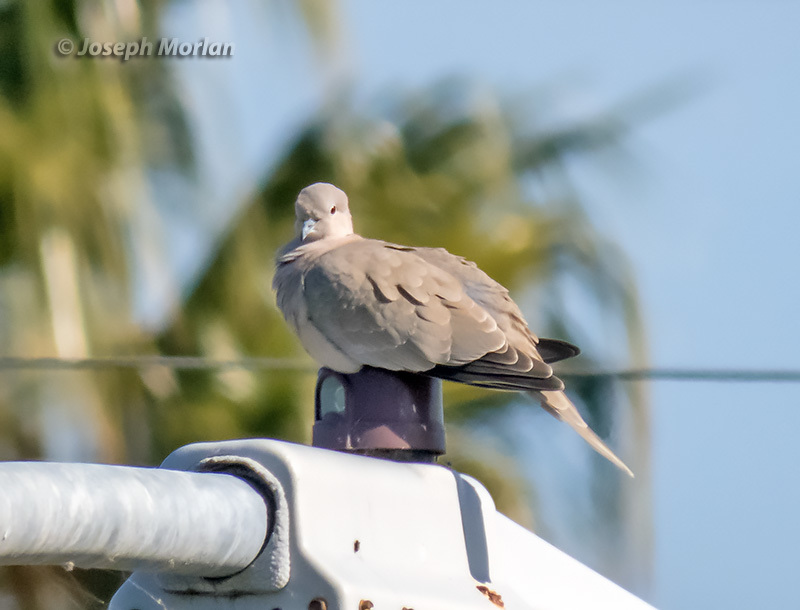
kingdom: Animalia
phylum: Chordata
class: Aves
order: Columbiformes
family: Columbidae
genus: Streptopelia
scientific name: Streptopelia decaocto
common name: Eurasian collared dove
